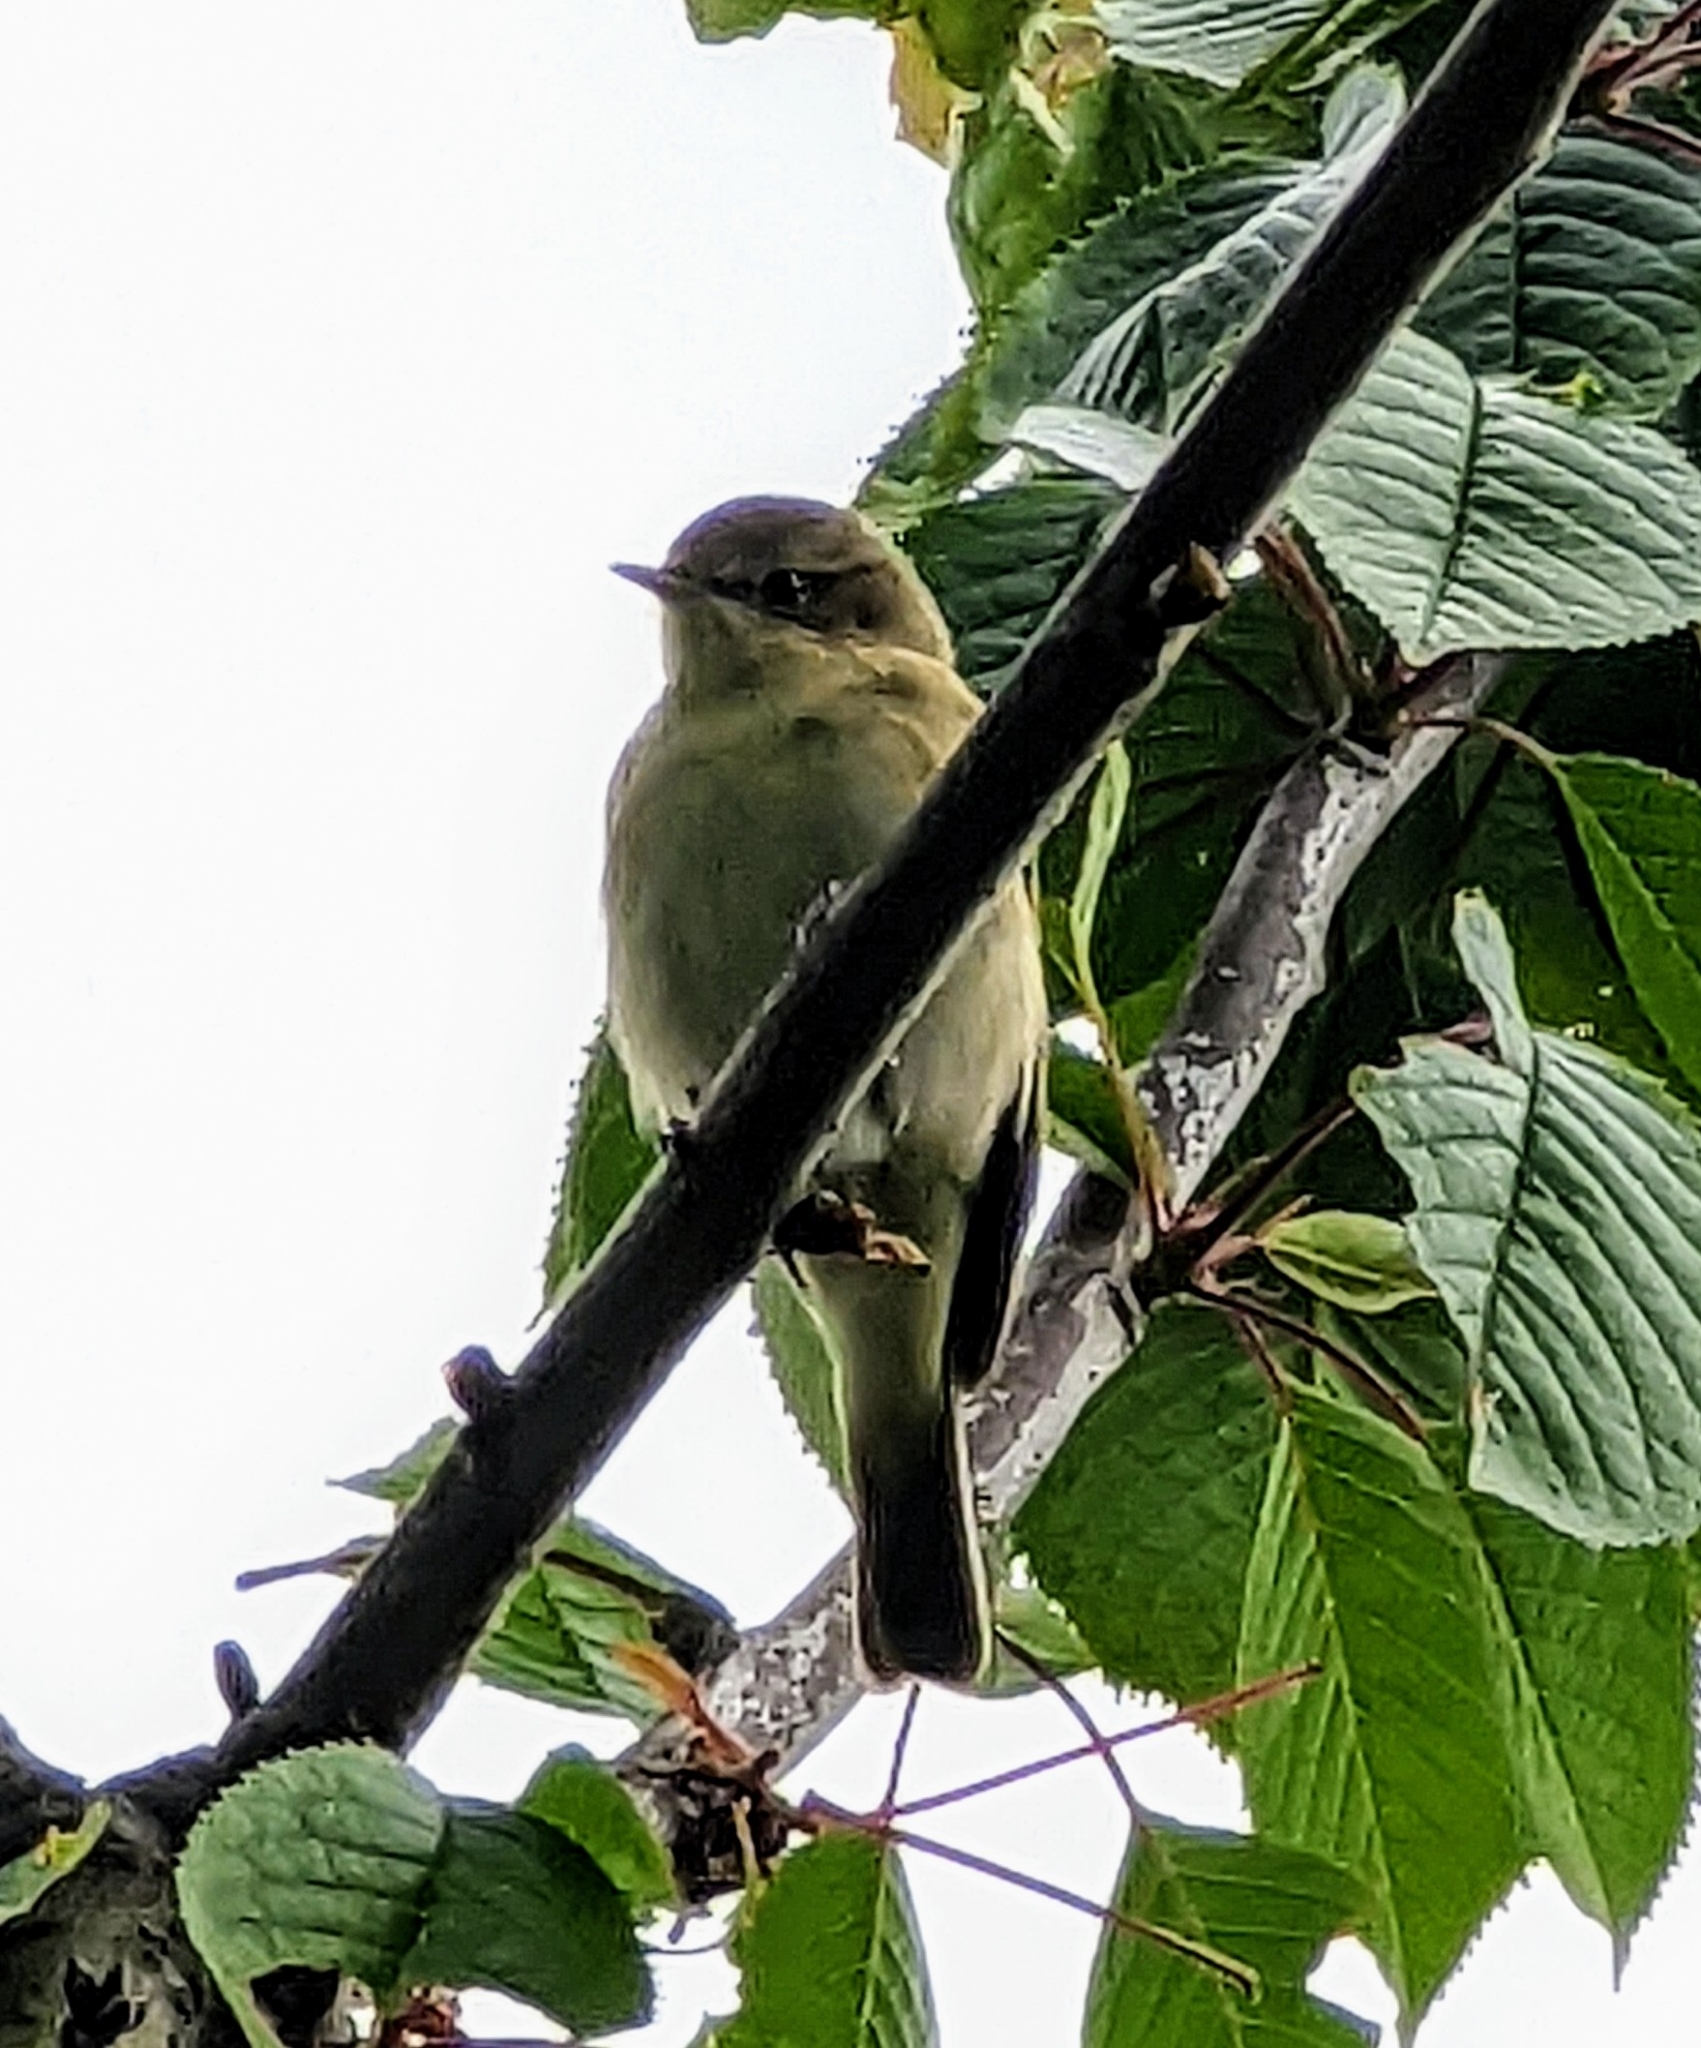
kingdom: Animalia
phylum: Chordata
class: Aves
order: Passeriformes
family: Phylloscopidae
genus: Phylloscopus
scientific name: Phylloscopus collybita
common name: Common chiffchaff
